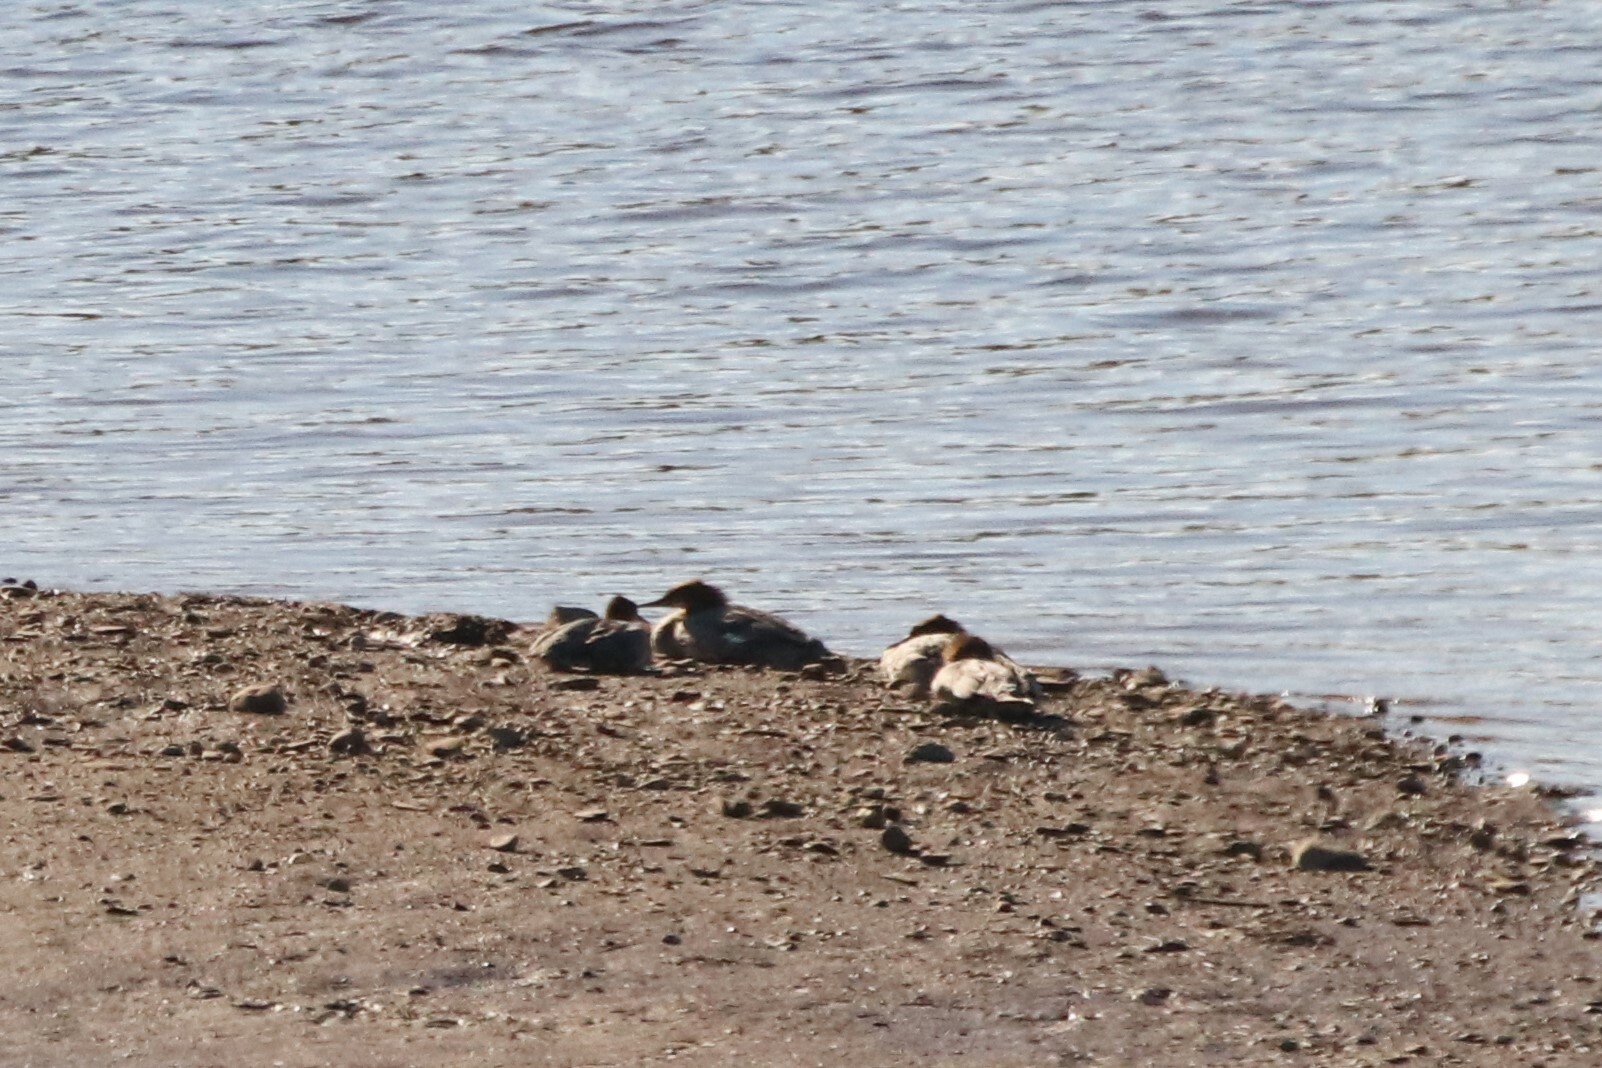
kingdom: Animalia
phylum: Chordata
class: Aves
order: Anseriformes
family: Anatidae
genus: Mergus
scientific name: Mergus merganser
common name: Common merganser
